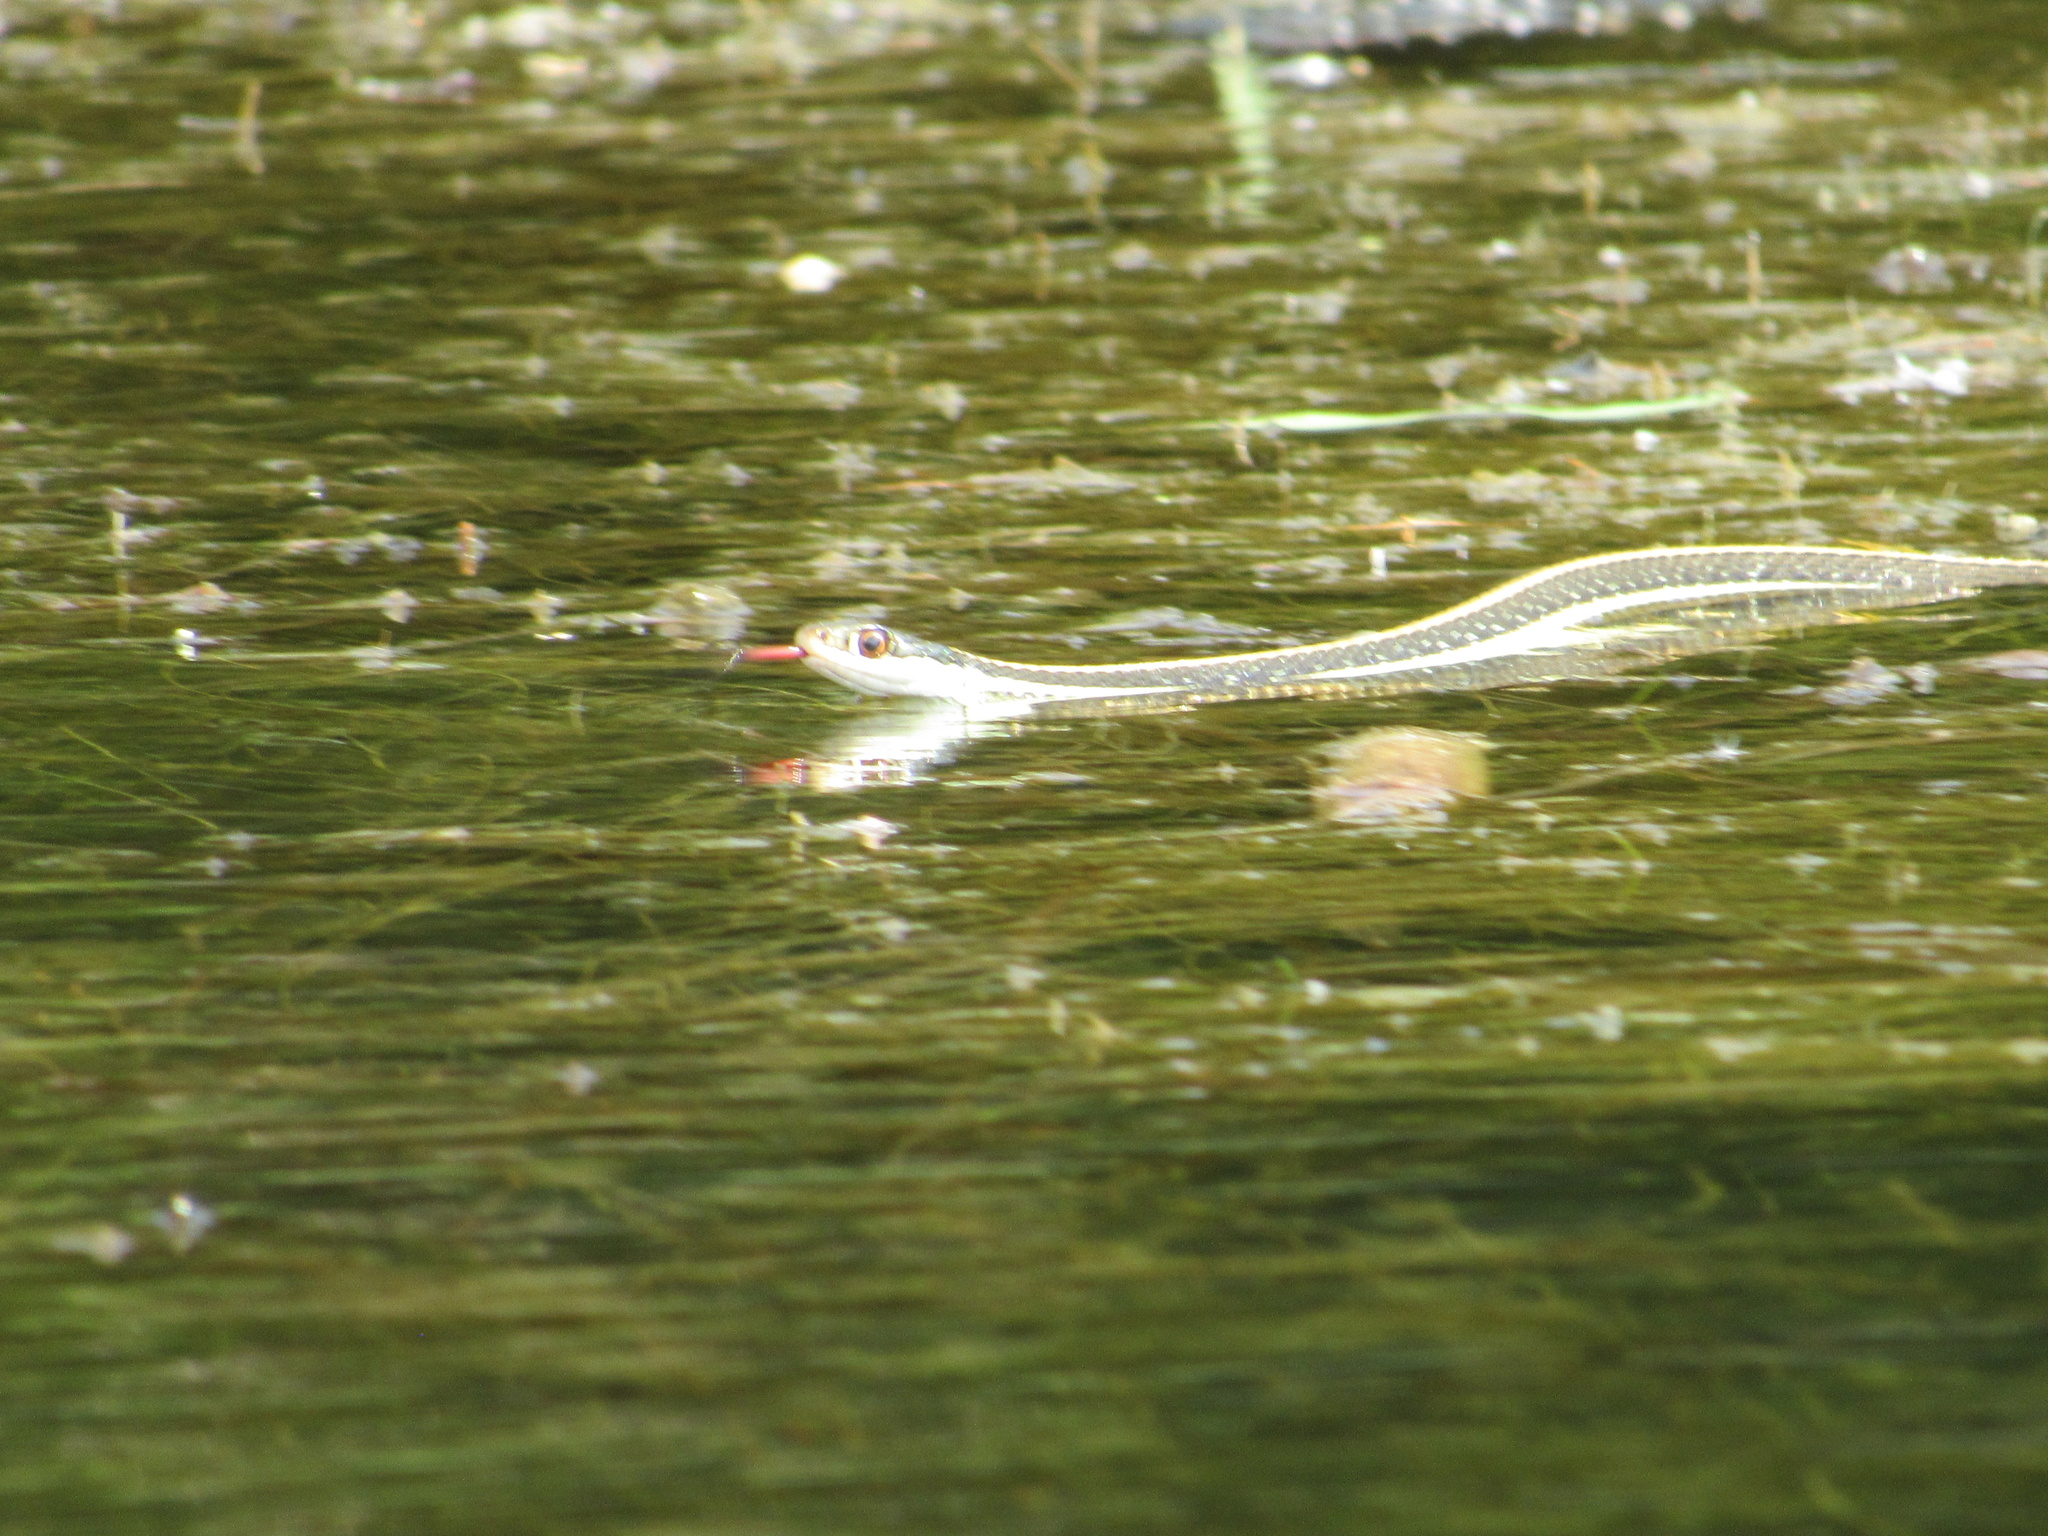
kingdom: Animalia
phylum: Chordata
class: Squamata
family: Colubridae
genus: Thamnophis
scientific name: Thamnophis proximus
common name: Western ribbon snake
